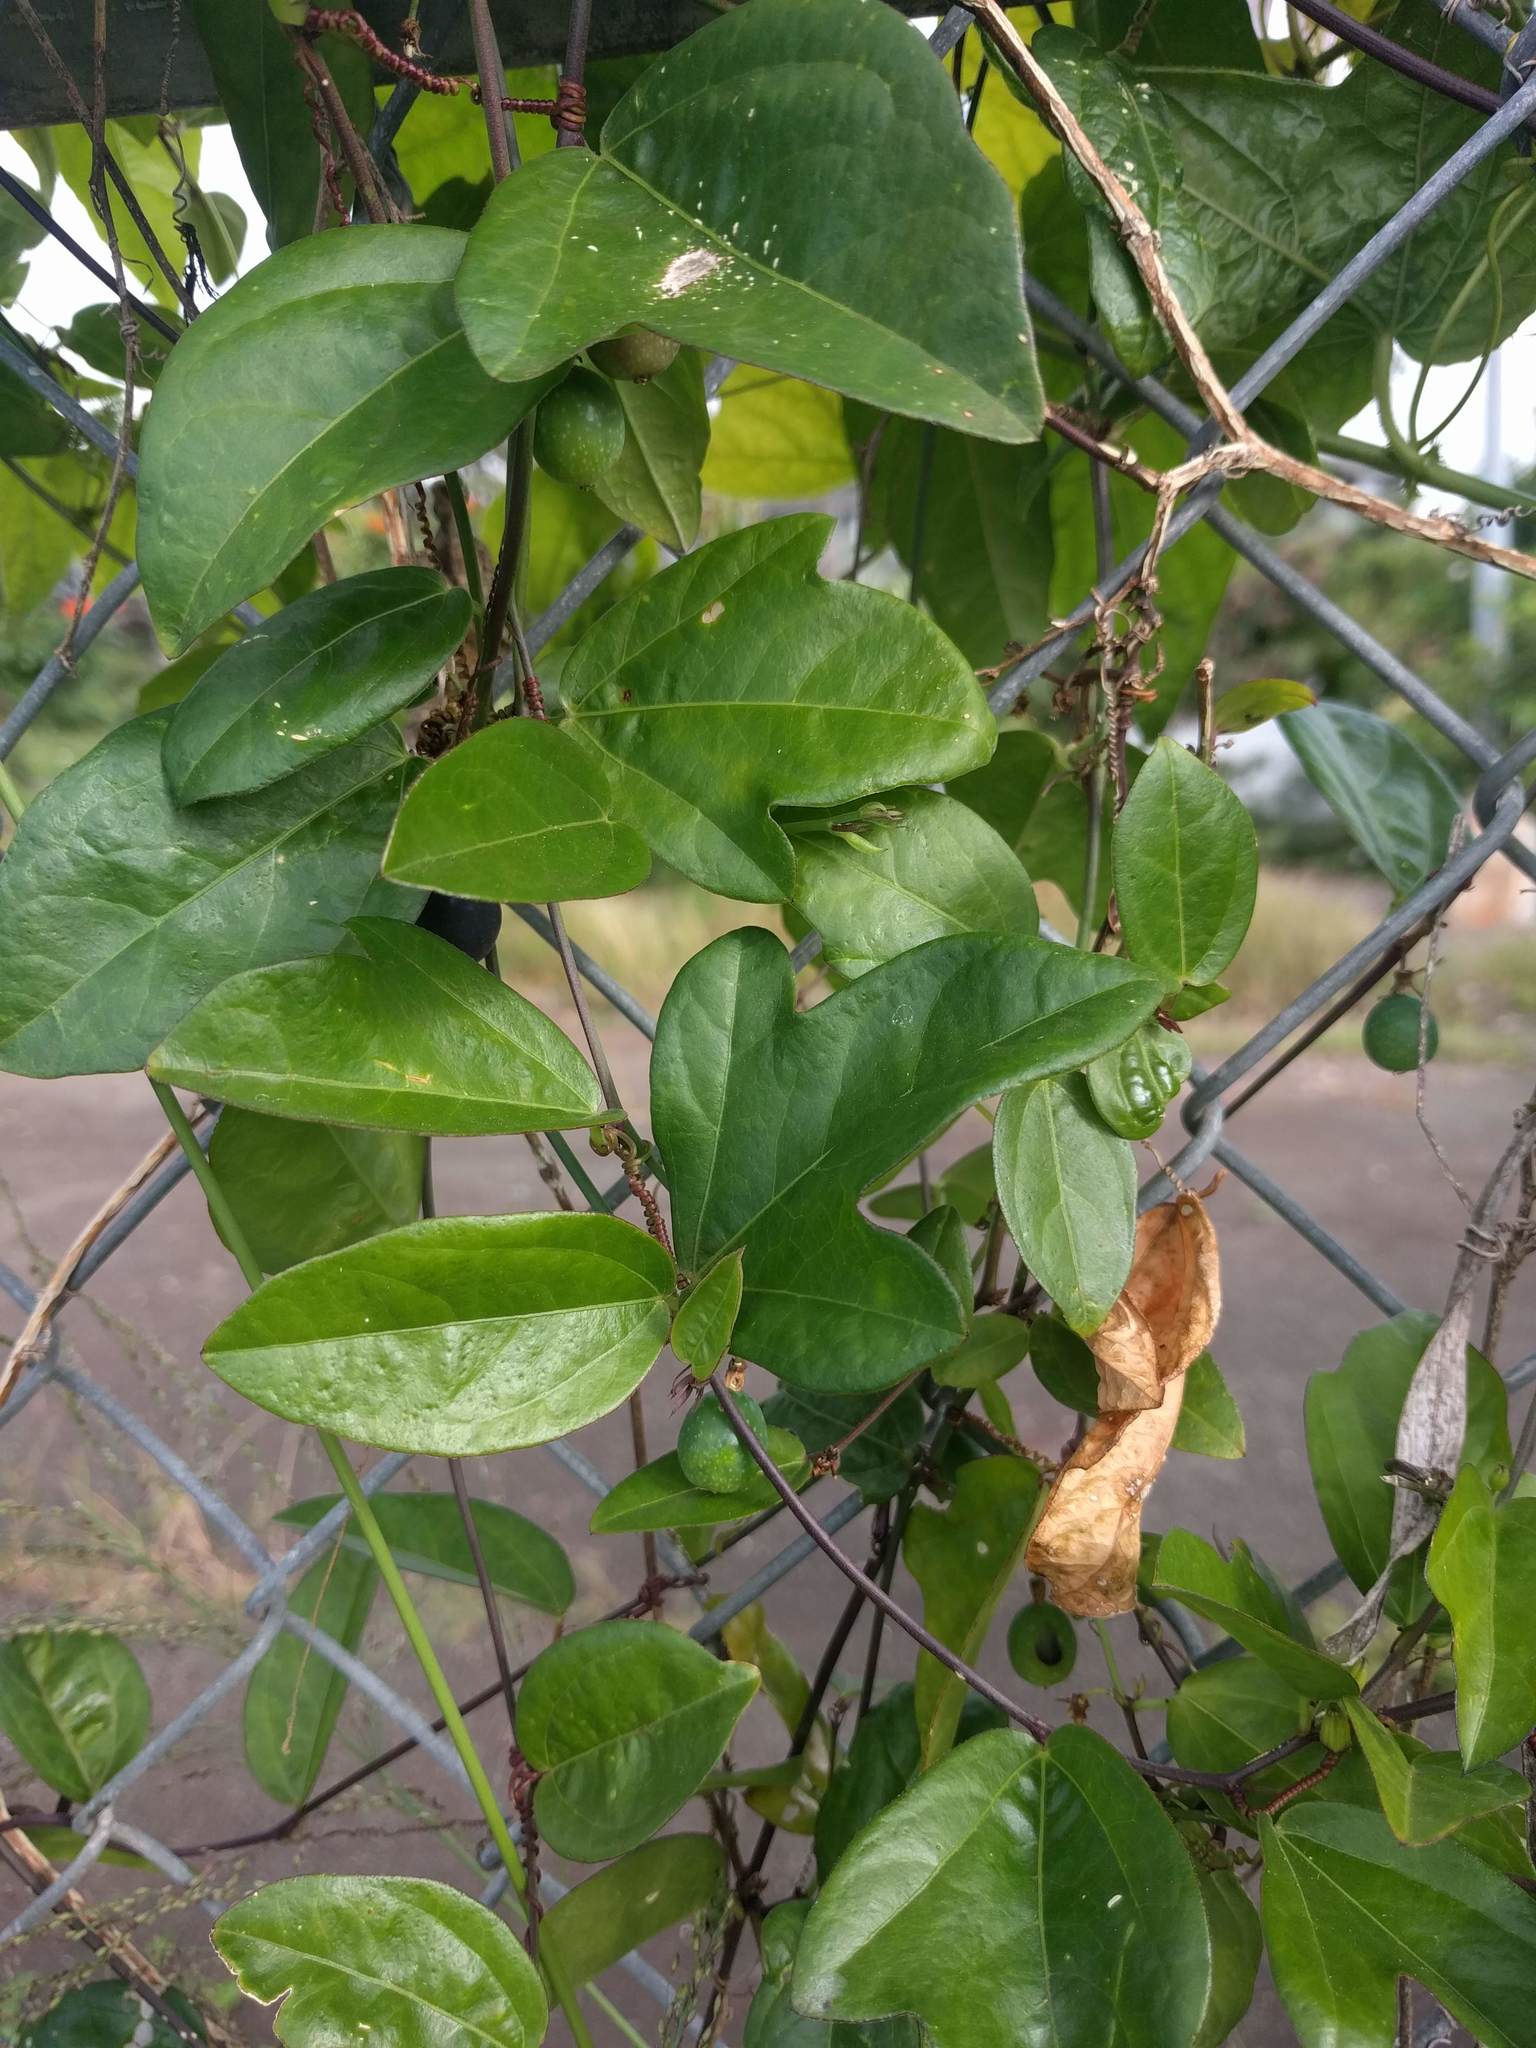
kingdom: Plantae
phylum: Tracheophyta
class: Magnoliopsida
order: Malpighiales
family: Passifloraceae
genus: Passiflora
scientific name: Passiflora pallida
